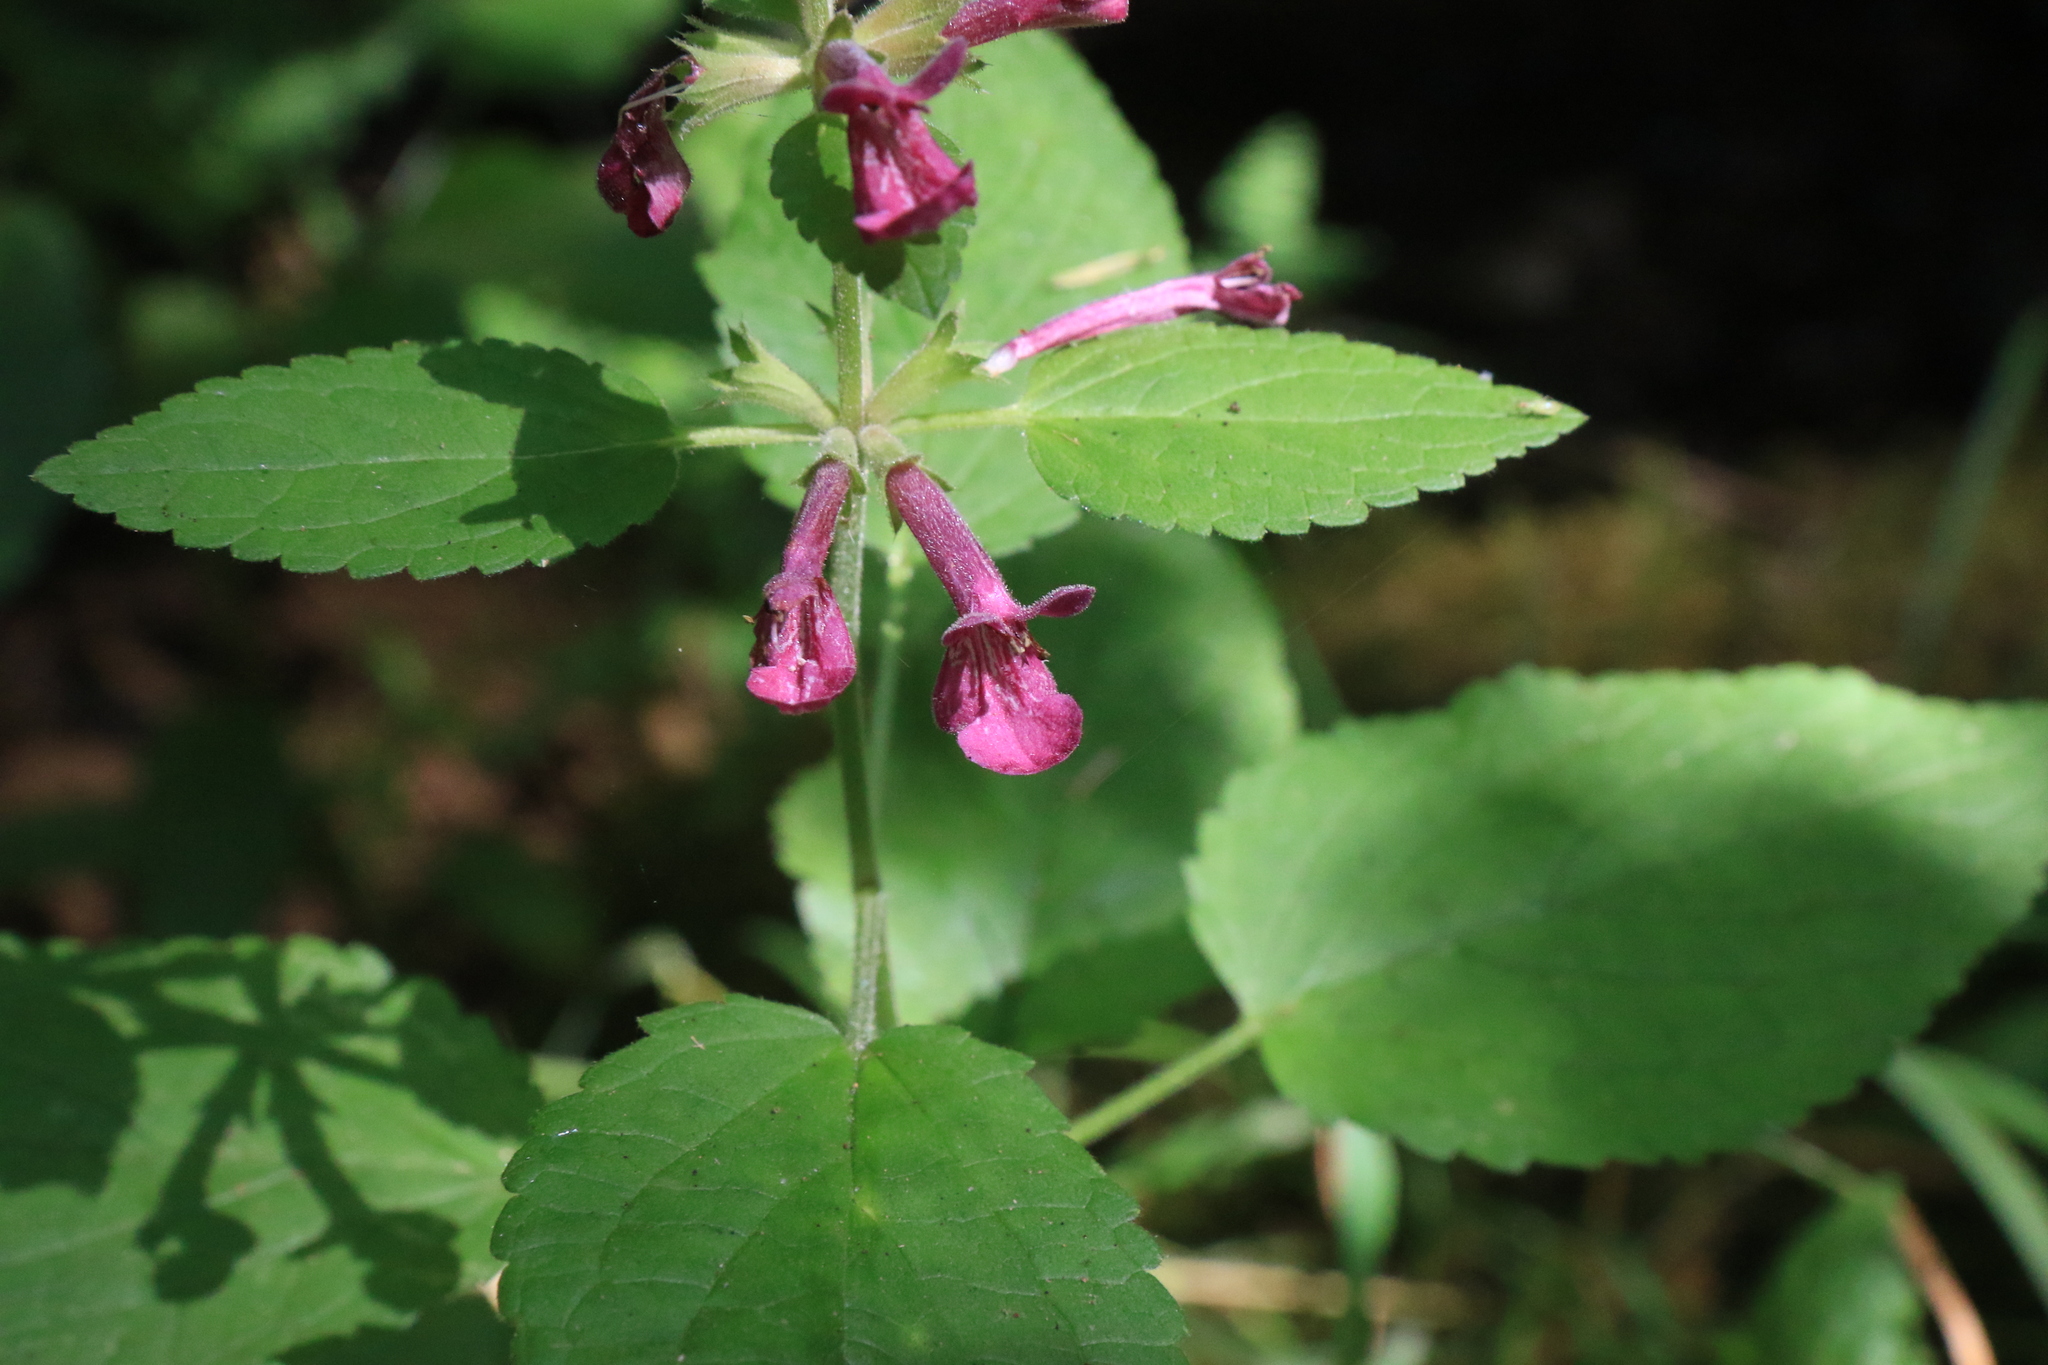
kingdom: Plantae
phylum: Tracheophyta
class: Magnoliopsida
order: Lamiales
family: Lamiaceae
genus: Stachys
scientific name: Stachys chamissonis
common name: Coastal hedge-nettle
